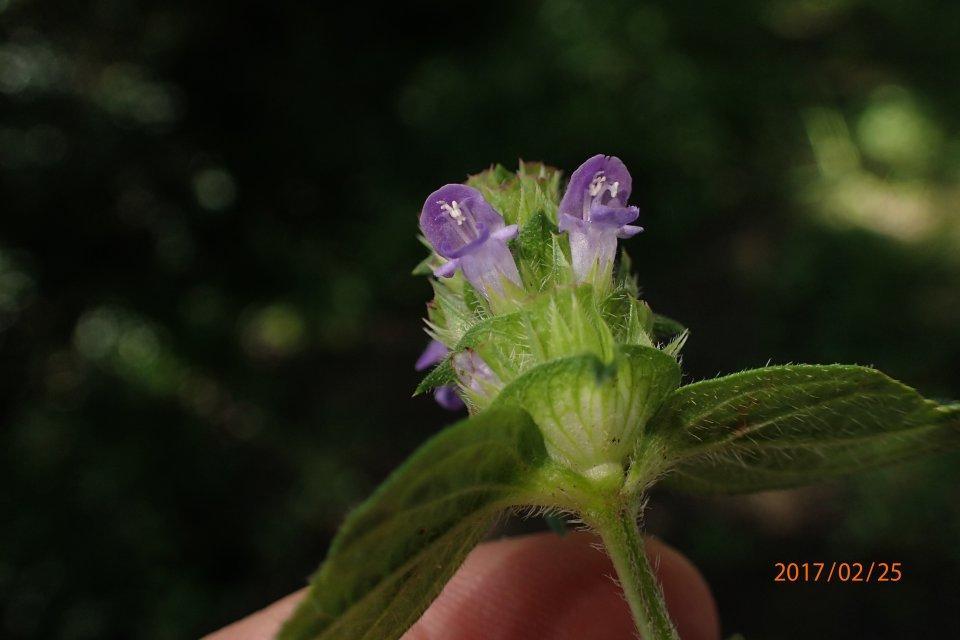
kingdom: Plantae
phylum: Tracheophyta
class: Magnoliopsida
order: Lamiales
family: Lamiaceae
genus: Prunella
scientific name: Prunella vulgaris
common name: Heal-all
